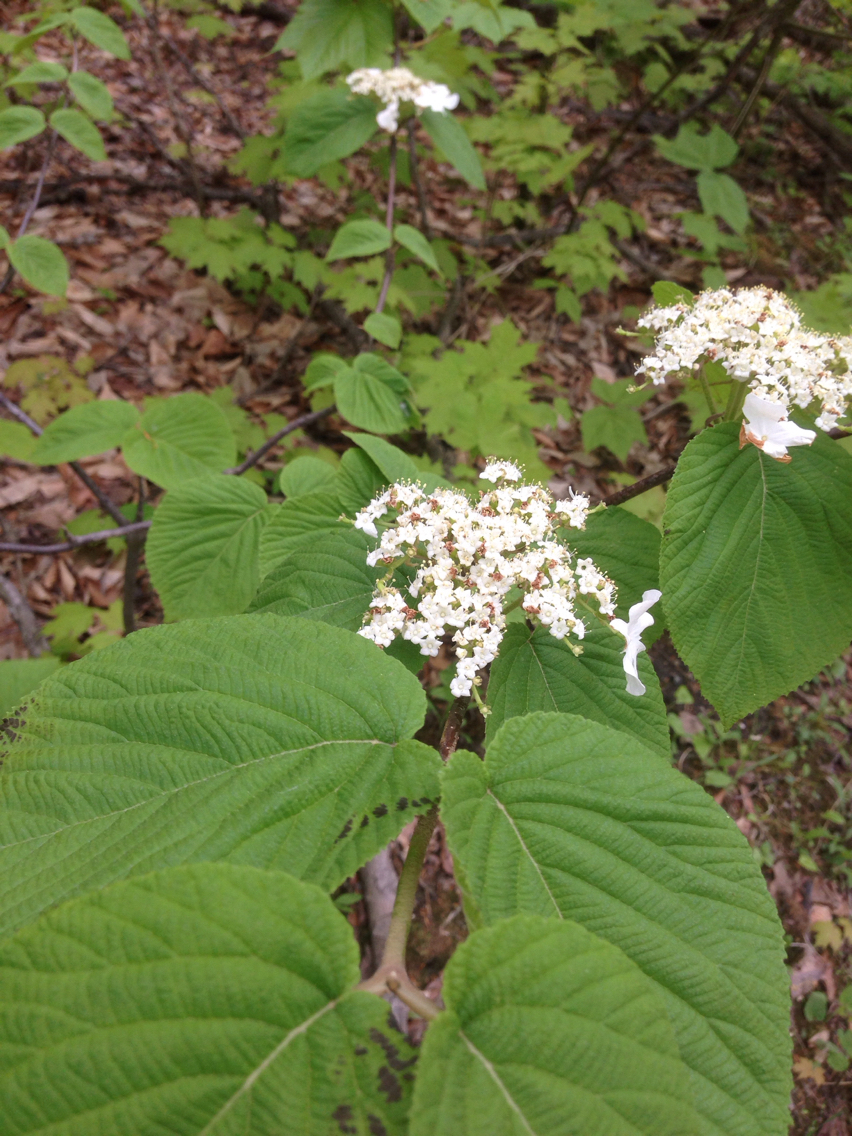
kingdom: Plantae
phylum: Tracheophyta
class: Magnoliopsida
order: Dipsacales
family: Viburnaceae
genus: Viburnum
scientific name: Viburnum lantanoides
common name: Hobblebush
